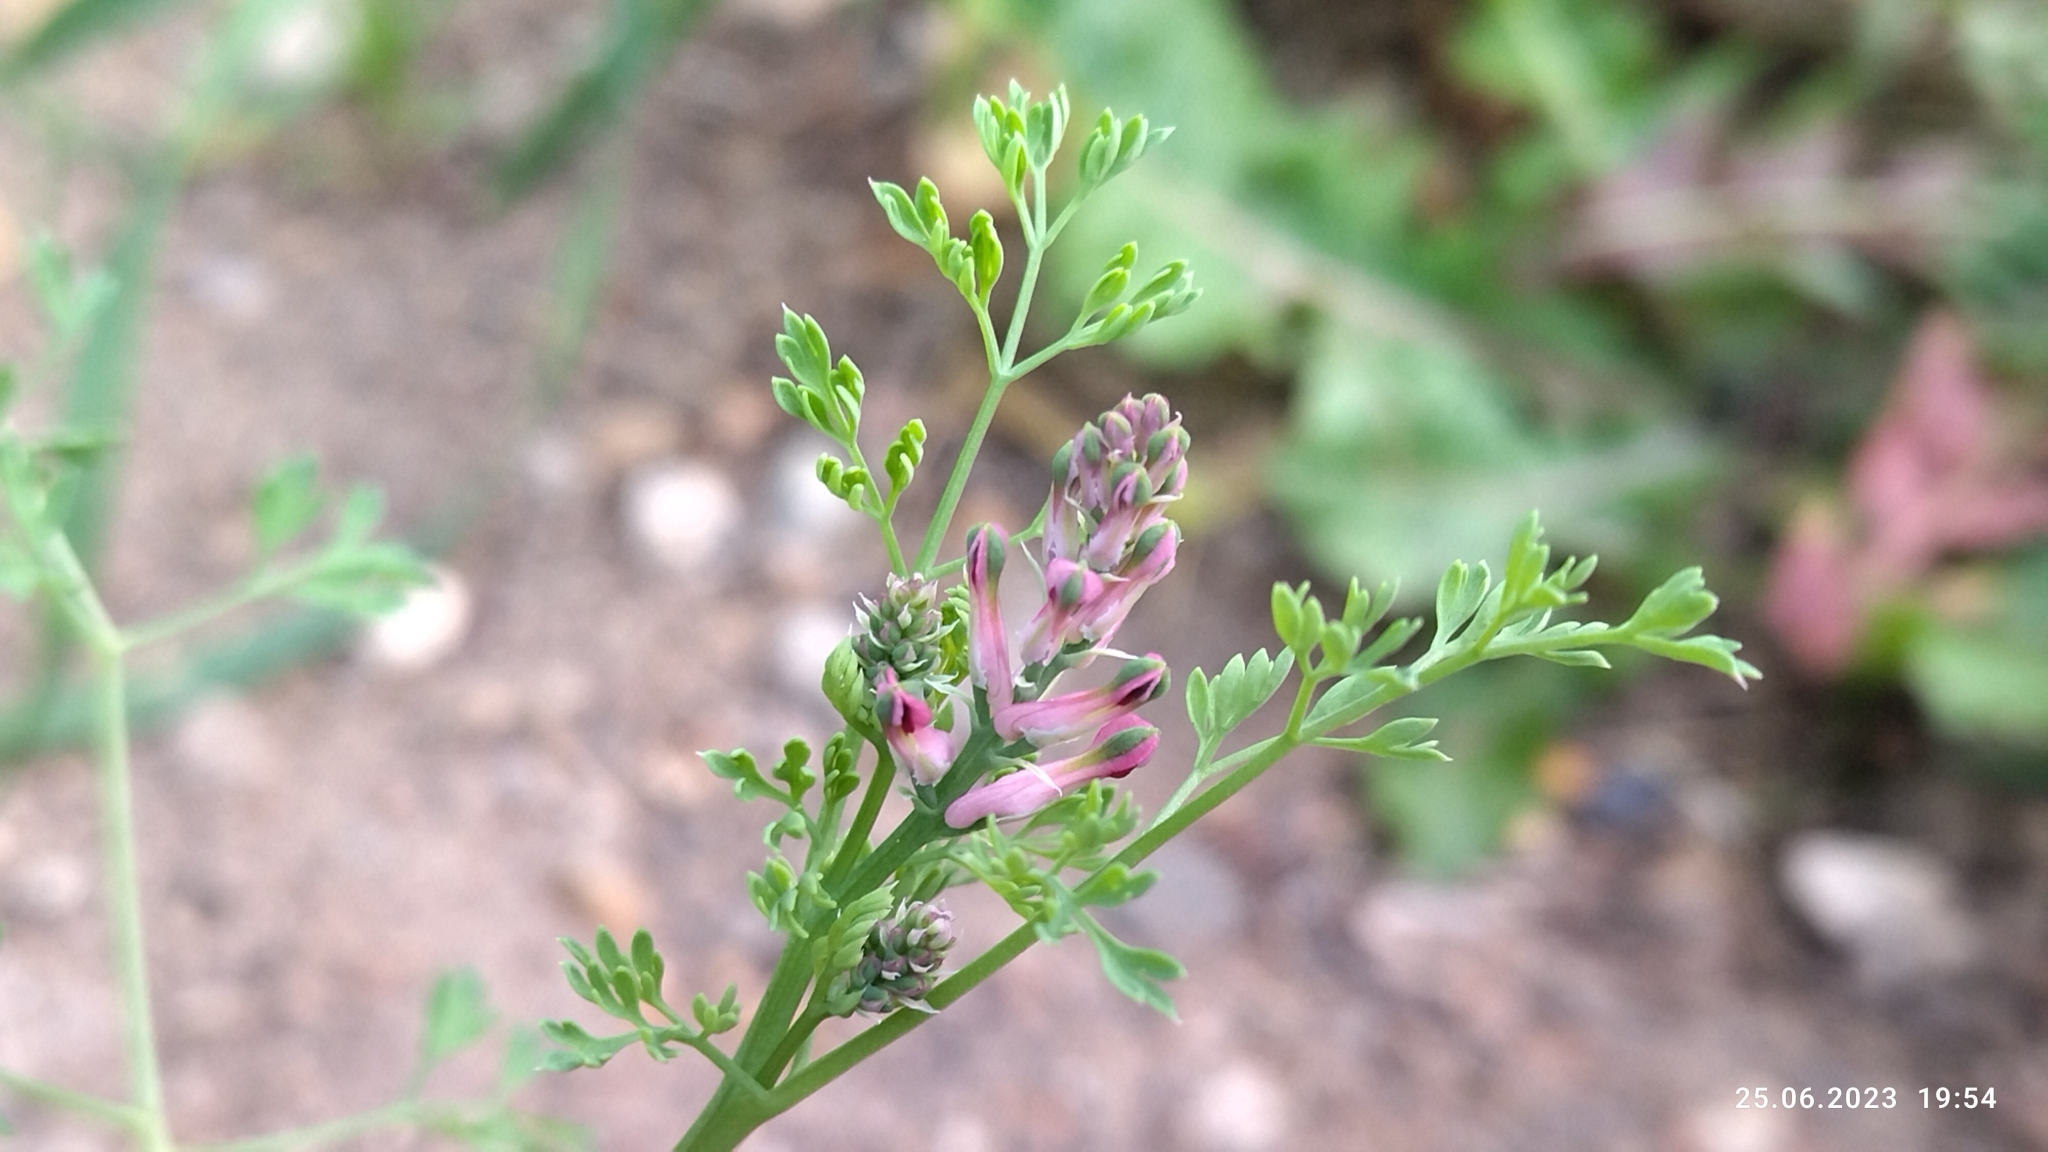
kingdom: Plantae
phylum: Tracheophyta
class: Magnoliopsida
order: Ranunculales
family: Papaveraceae
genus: Fumaria
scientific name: Fumaria officinalis
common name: Common fumitory
